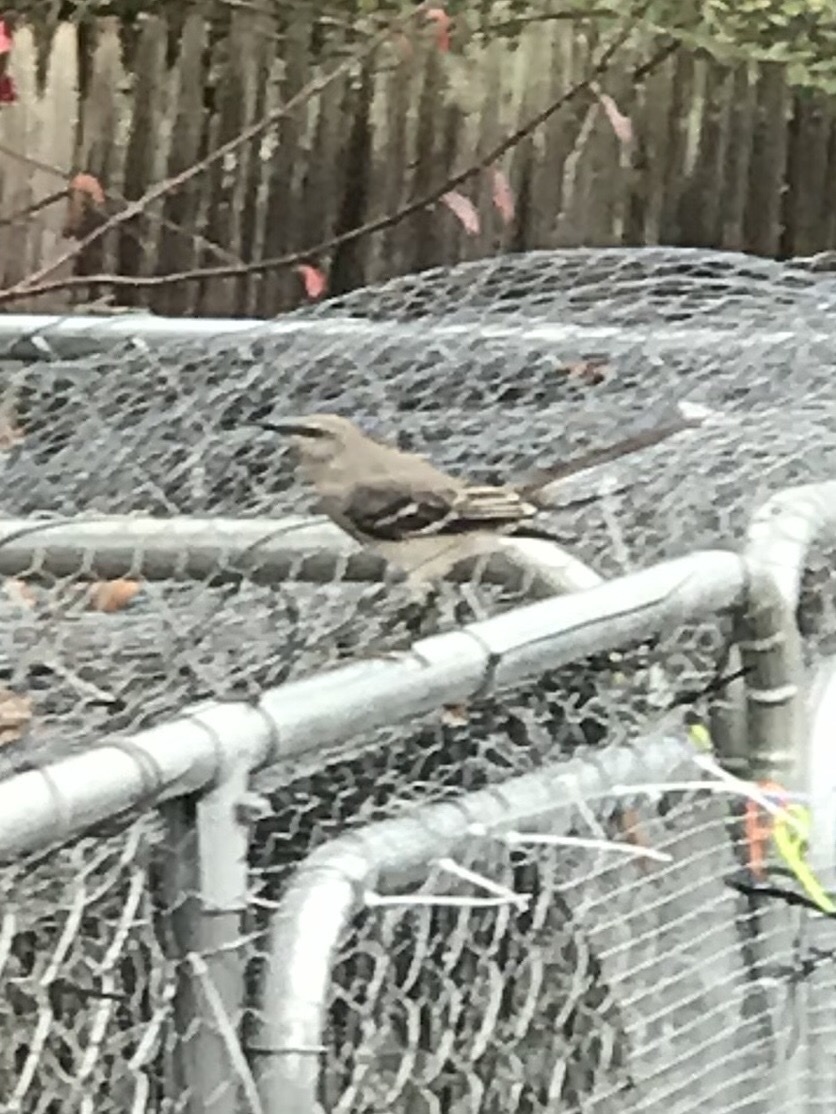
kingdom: Animalia
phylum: Chordata
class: Aves
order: Passeriformes
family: Mimidae
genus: Mimus
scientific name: Mimus polyglottos
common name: Northern mockingbird
